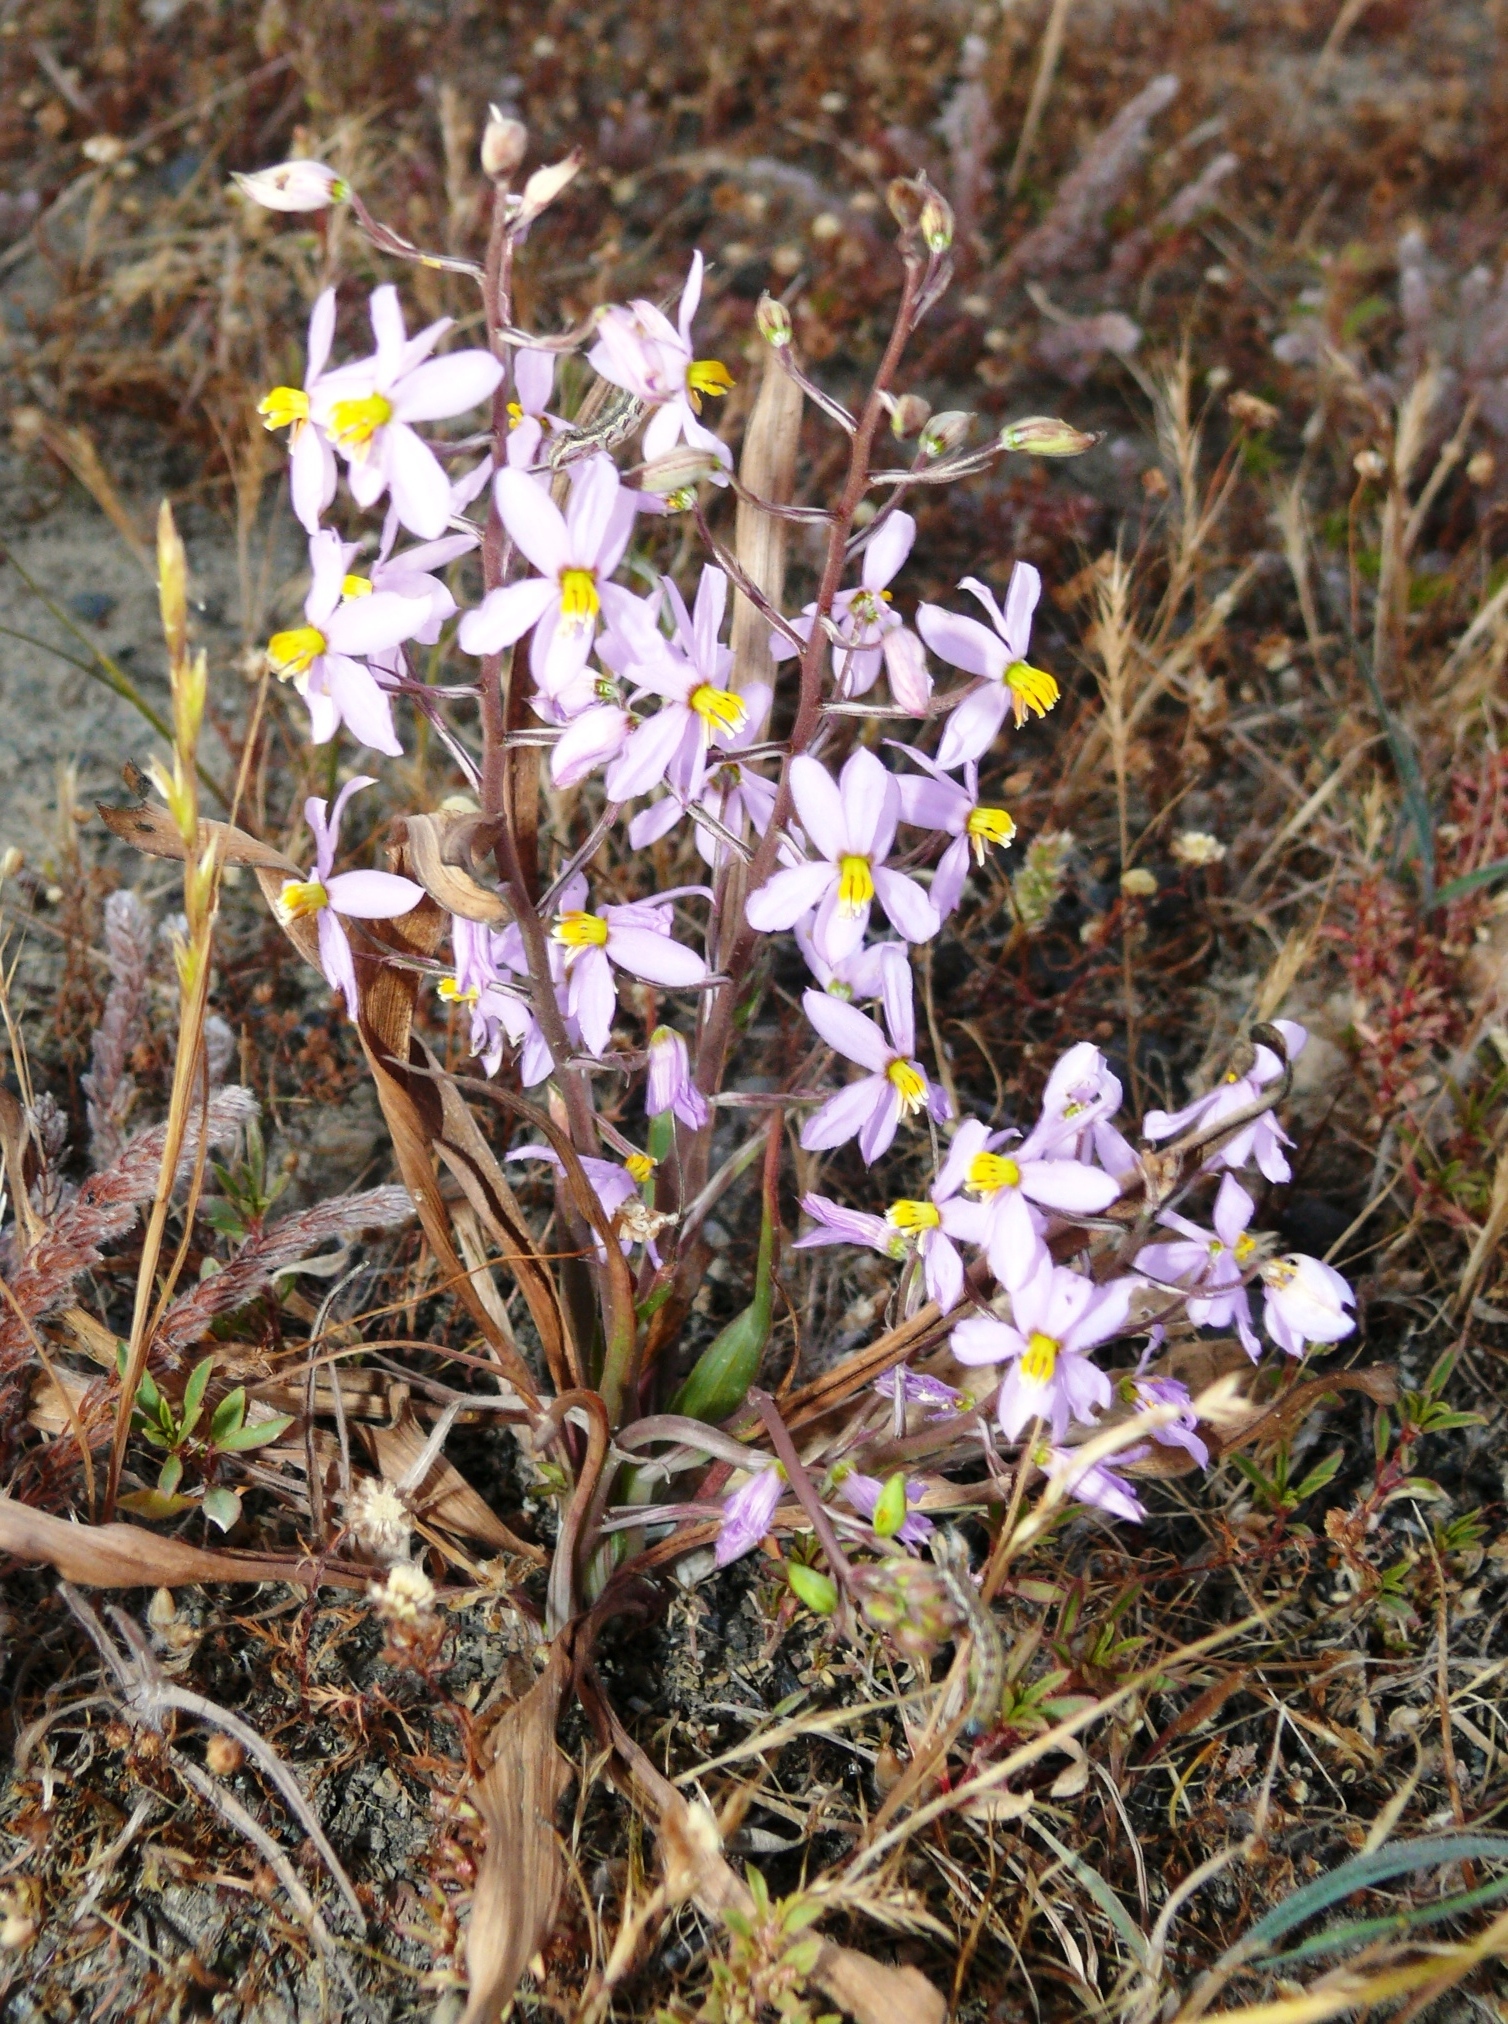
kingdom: Plantae
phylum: Tracheophyta
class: Liliopsida
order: Asparagales
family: Tecophilaeaceae
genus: Cyanella
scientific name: Cyanella orchidiformis
